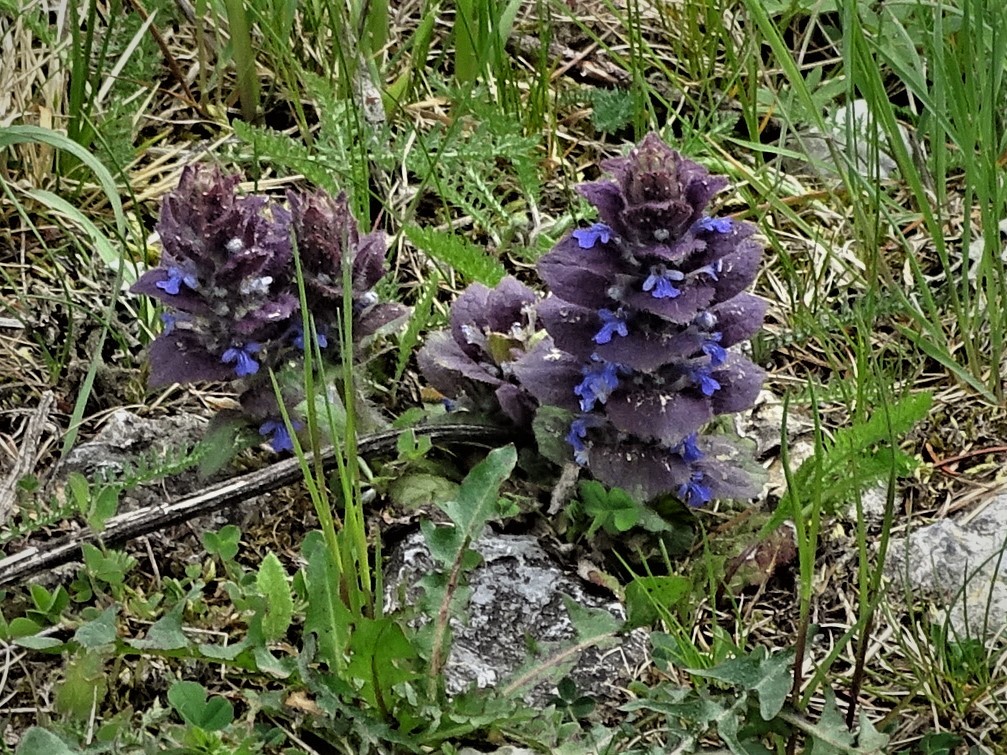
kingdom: Plantae
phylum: Tracheophyta
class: Magnoliopsida
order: Lamiales
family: Lamiaceae
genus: Ajuga
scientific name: Ajuga pyramidalis
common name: Pyramid bugle
